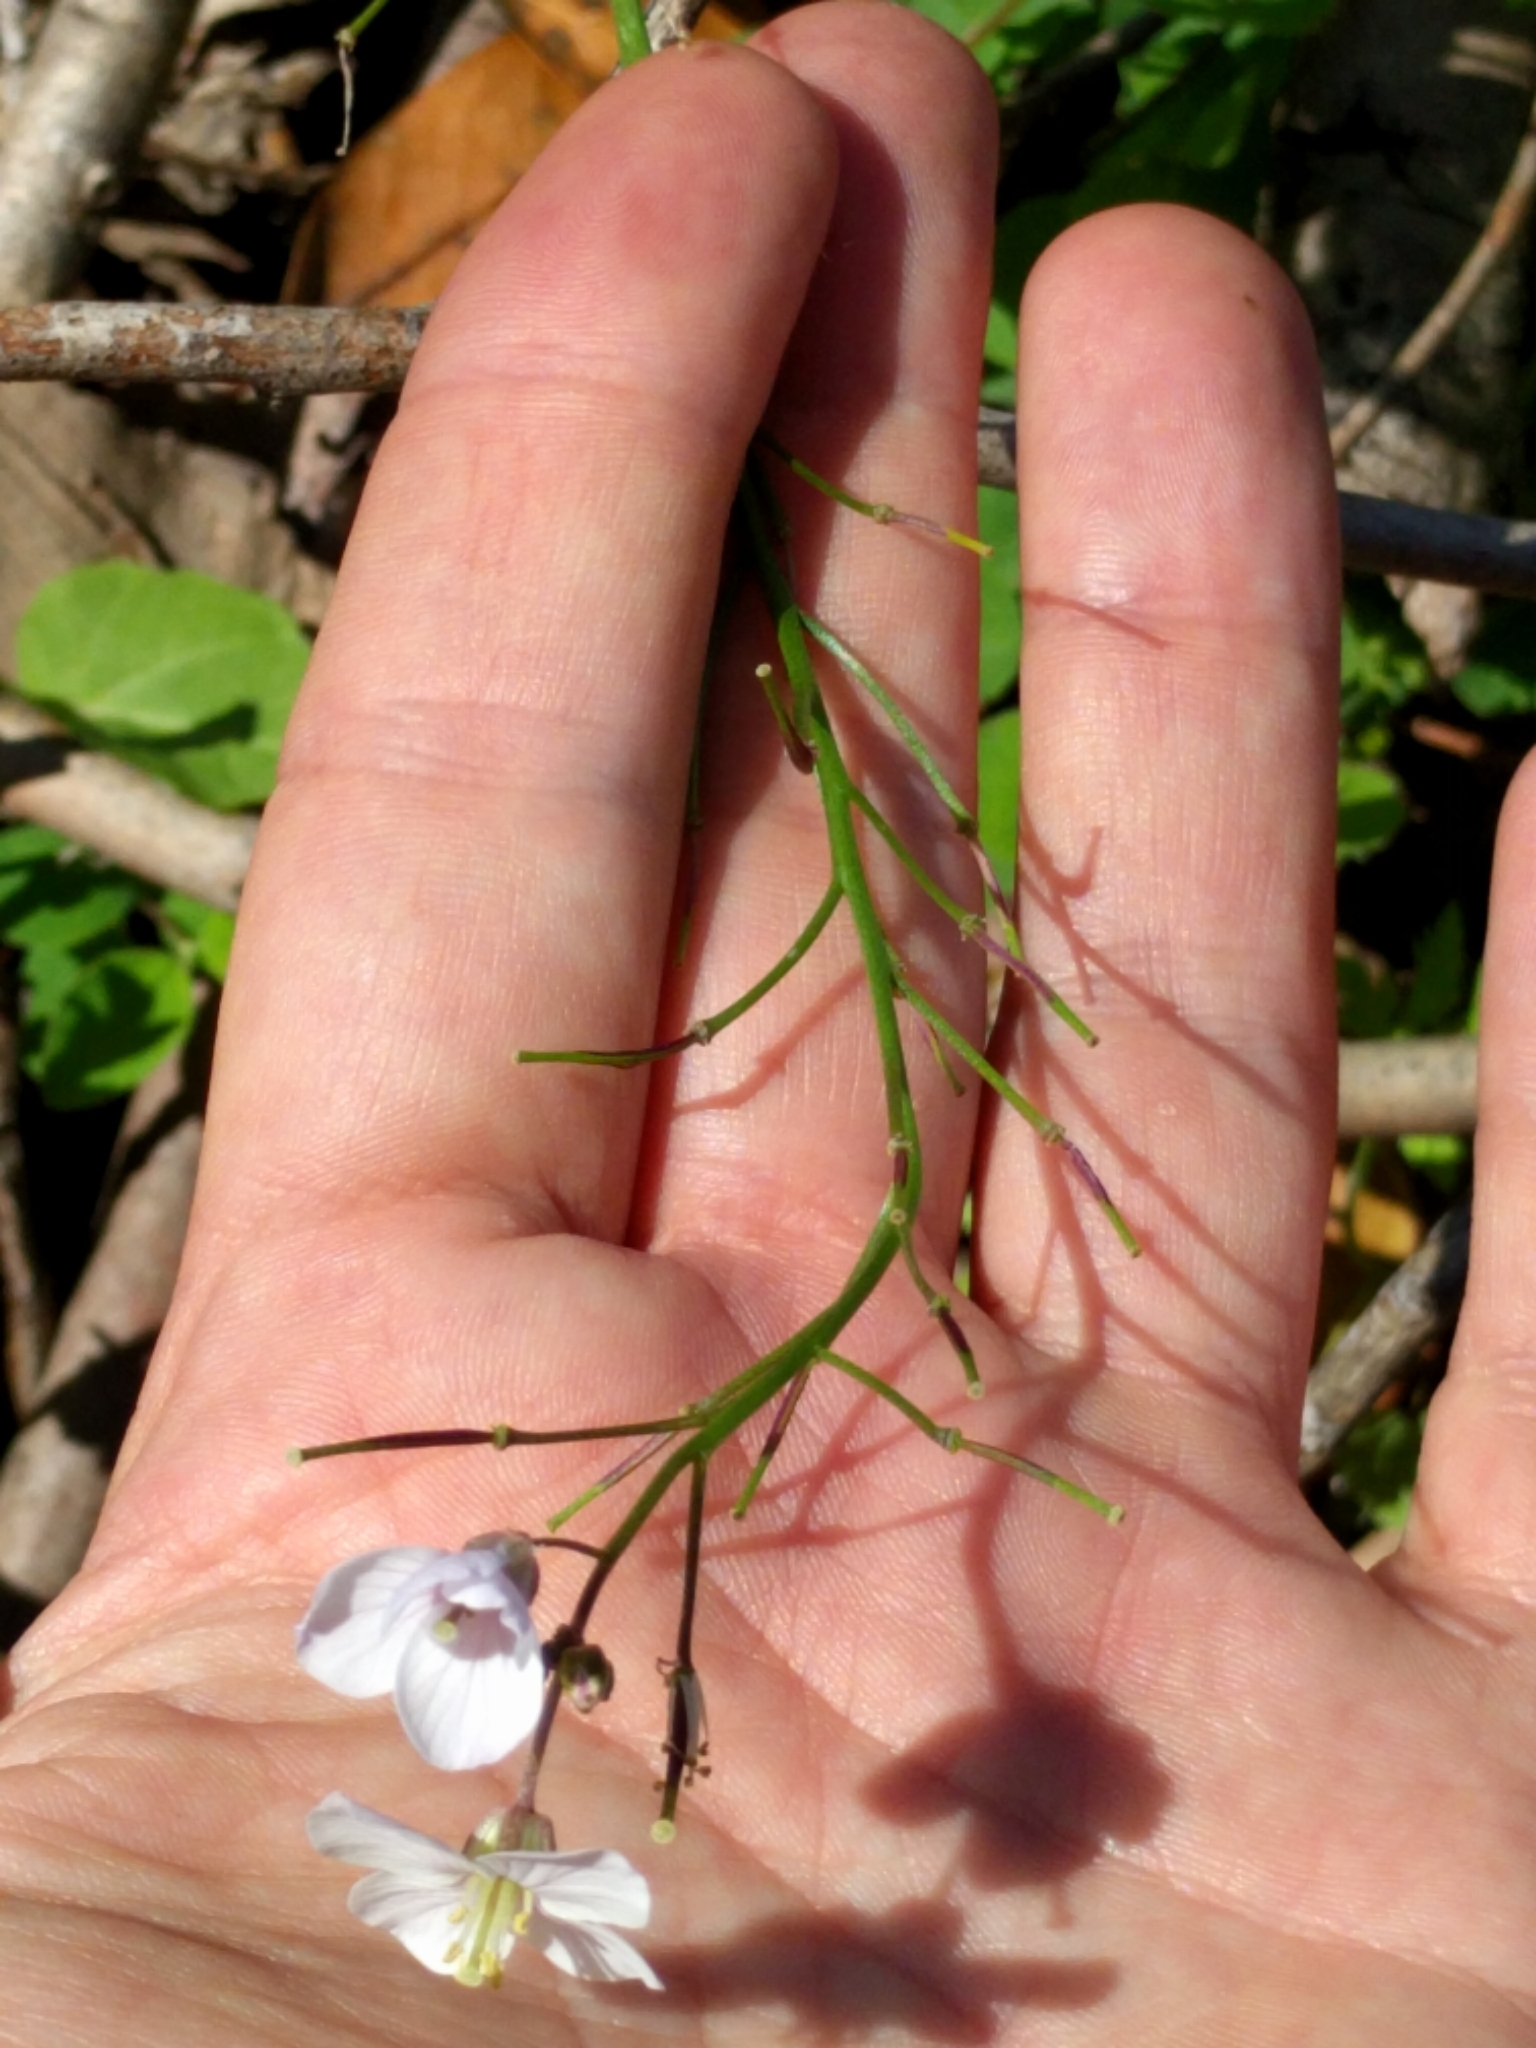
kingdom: Plantae
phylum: Tracheophyta
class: Magnoliopsida
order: Brassicales
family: Brassicaceae
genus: Cardamine
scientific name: Cardamine californica
